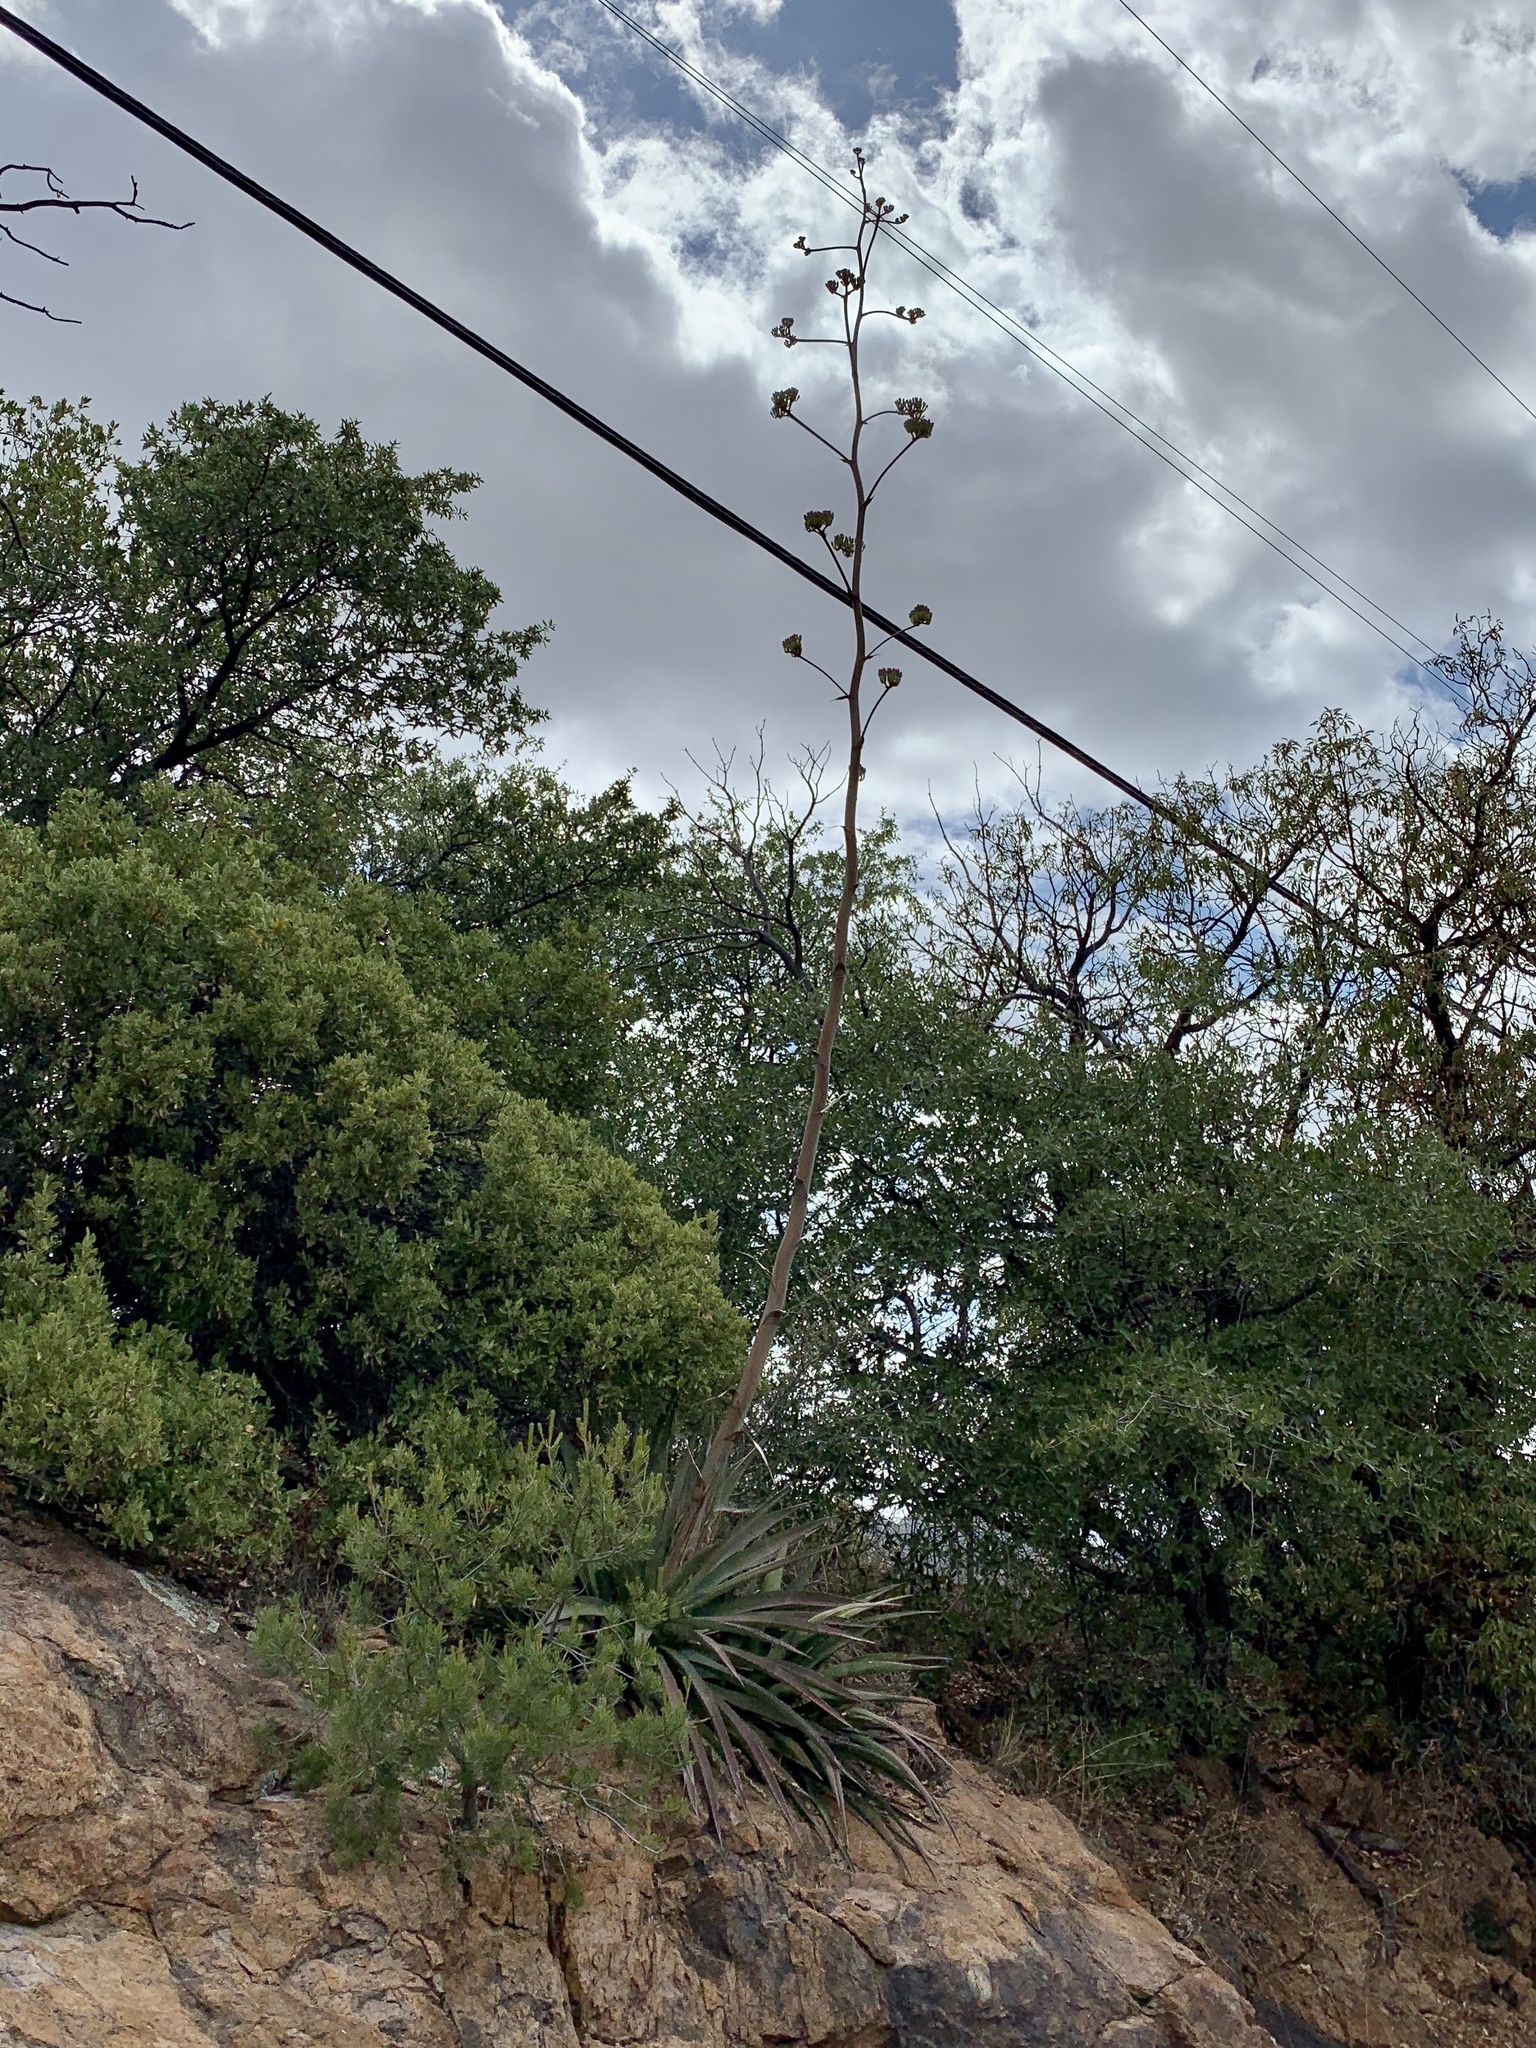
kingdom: Plantae
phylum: Tracheophyta
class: Liliopsida
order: Asparagales
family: Asparagaceae
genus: Agave
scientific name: Agave palmeri
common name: Palmer agave
